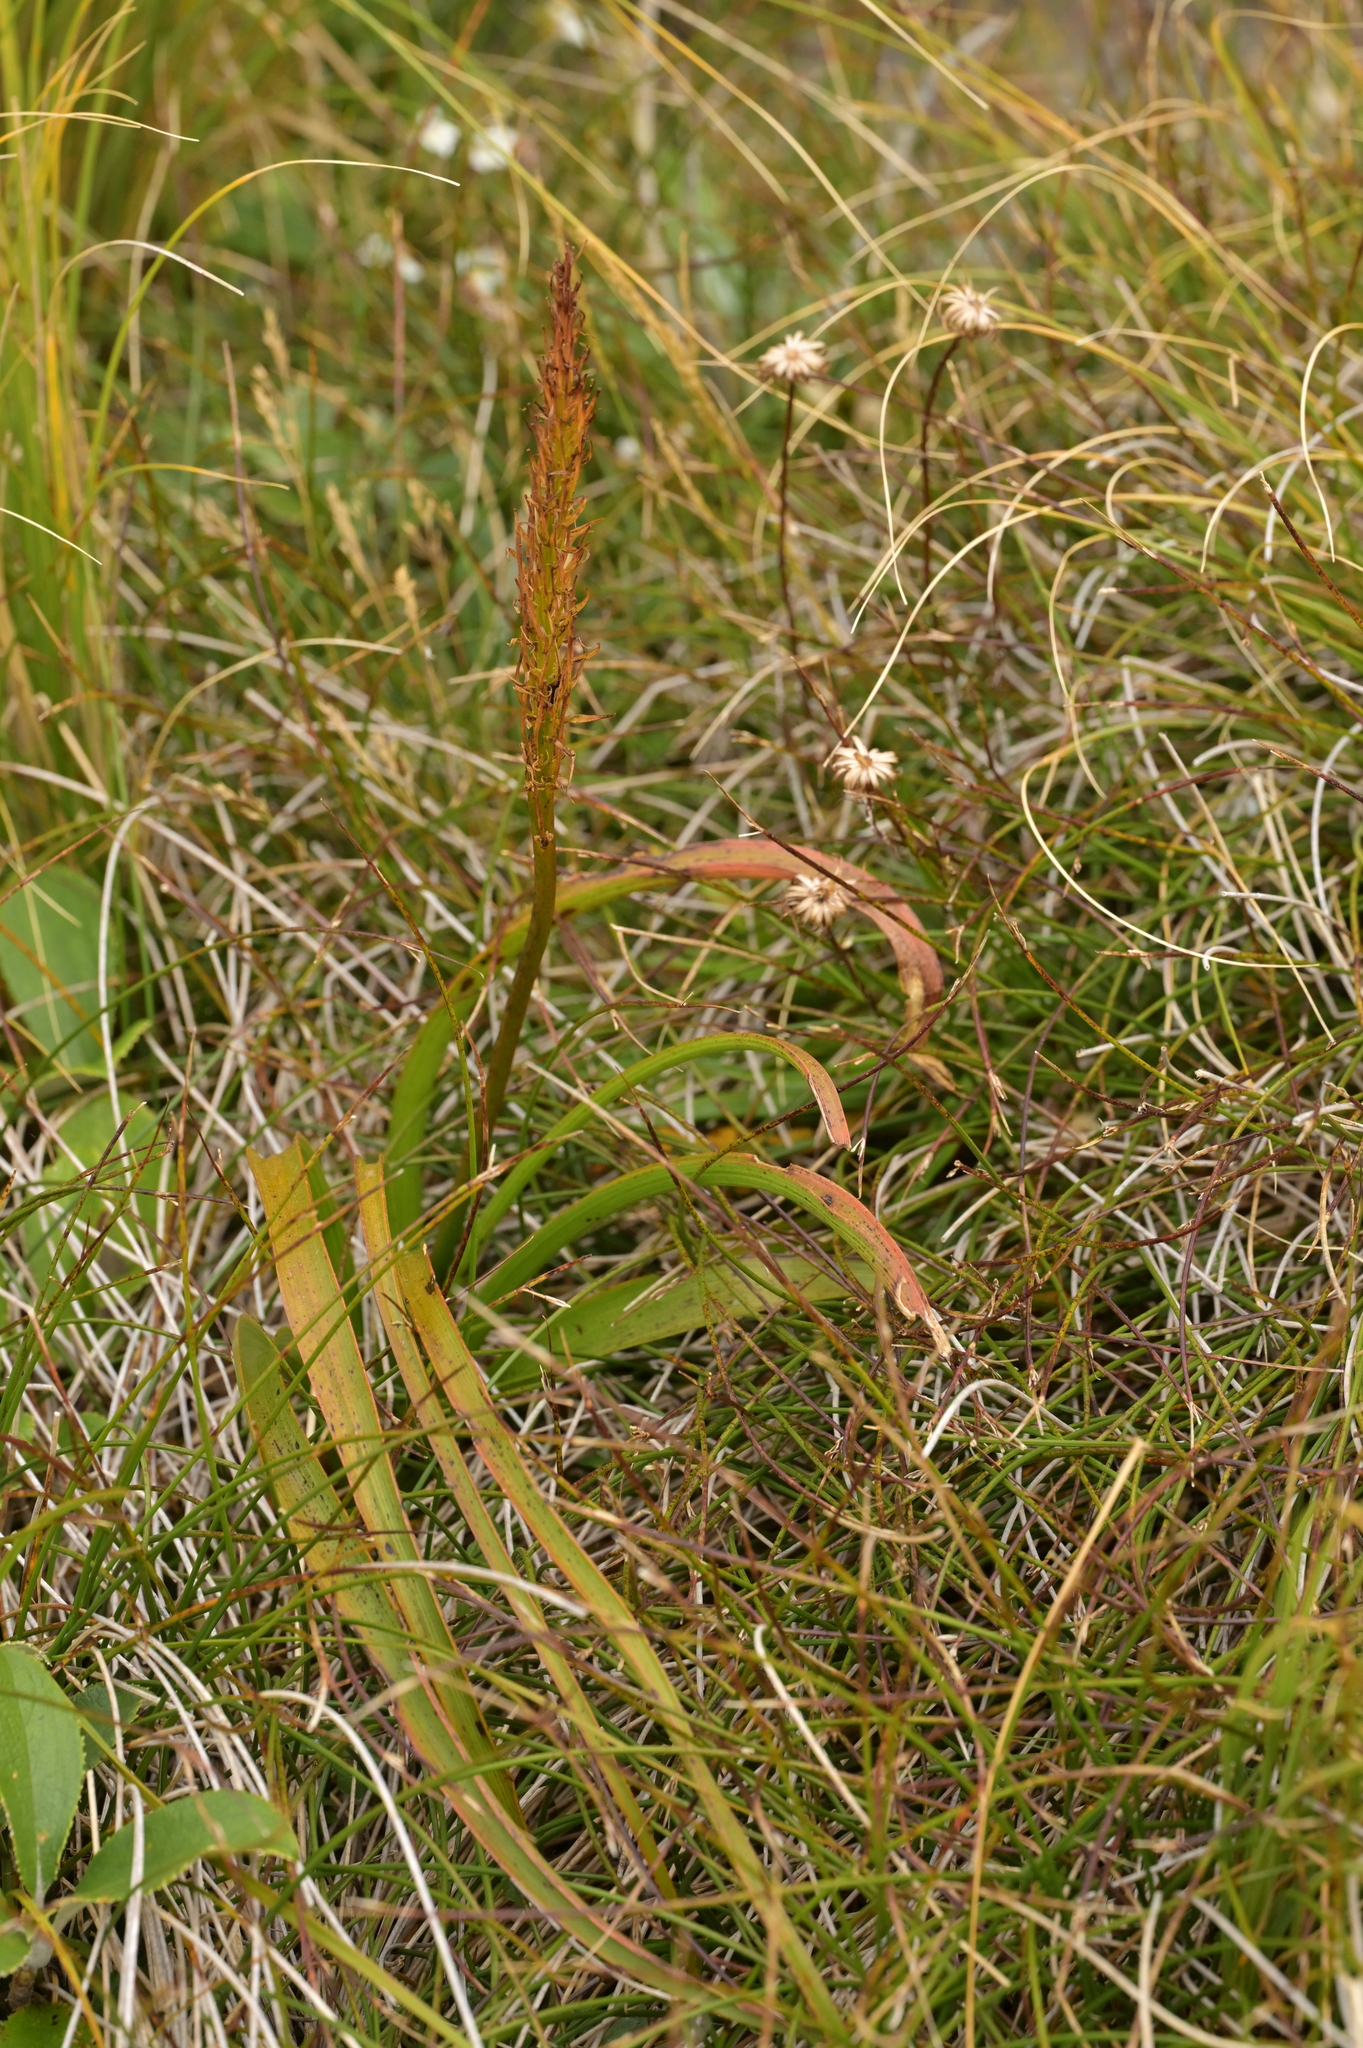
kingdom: Plantae
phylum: Tracheophyta
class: Liliopsida
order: Asparagales
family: Asphodelaceae
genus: Bulbinella
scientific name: Bulbinella hookeri
